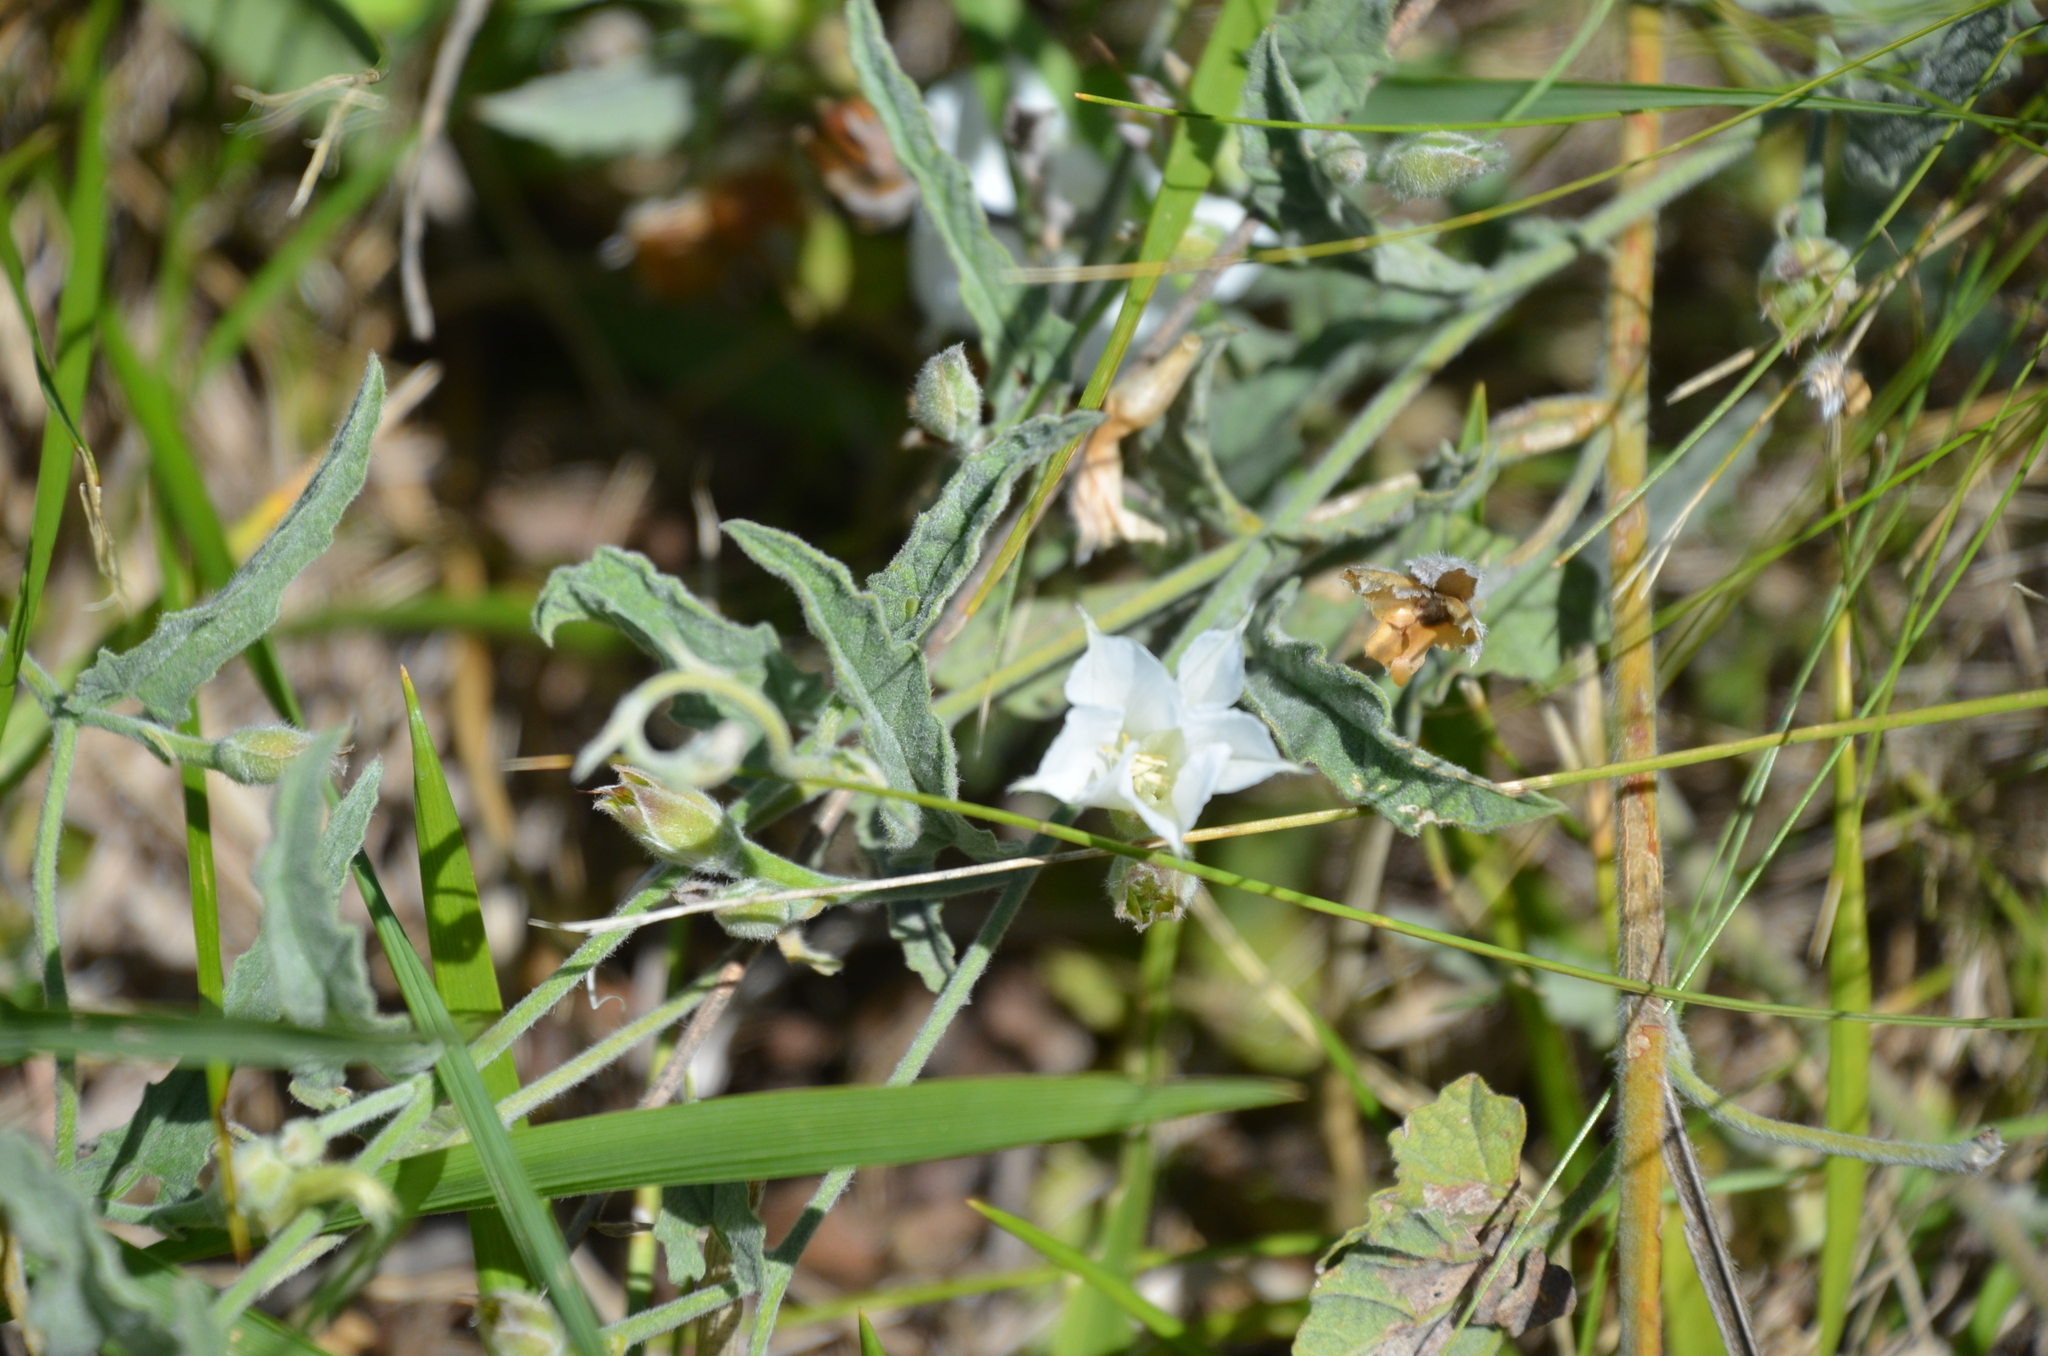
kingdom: Plantae
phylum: Tracheophyta
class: Magnoliopsida
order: Solanales
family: Convolvulaceae
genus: Convolvulus
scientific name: Convolvulus hermanniae
